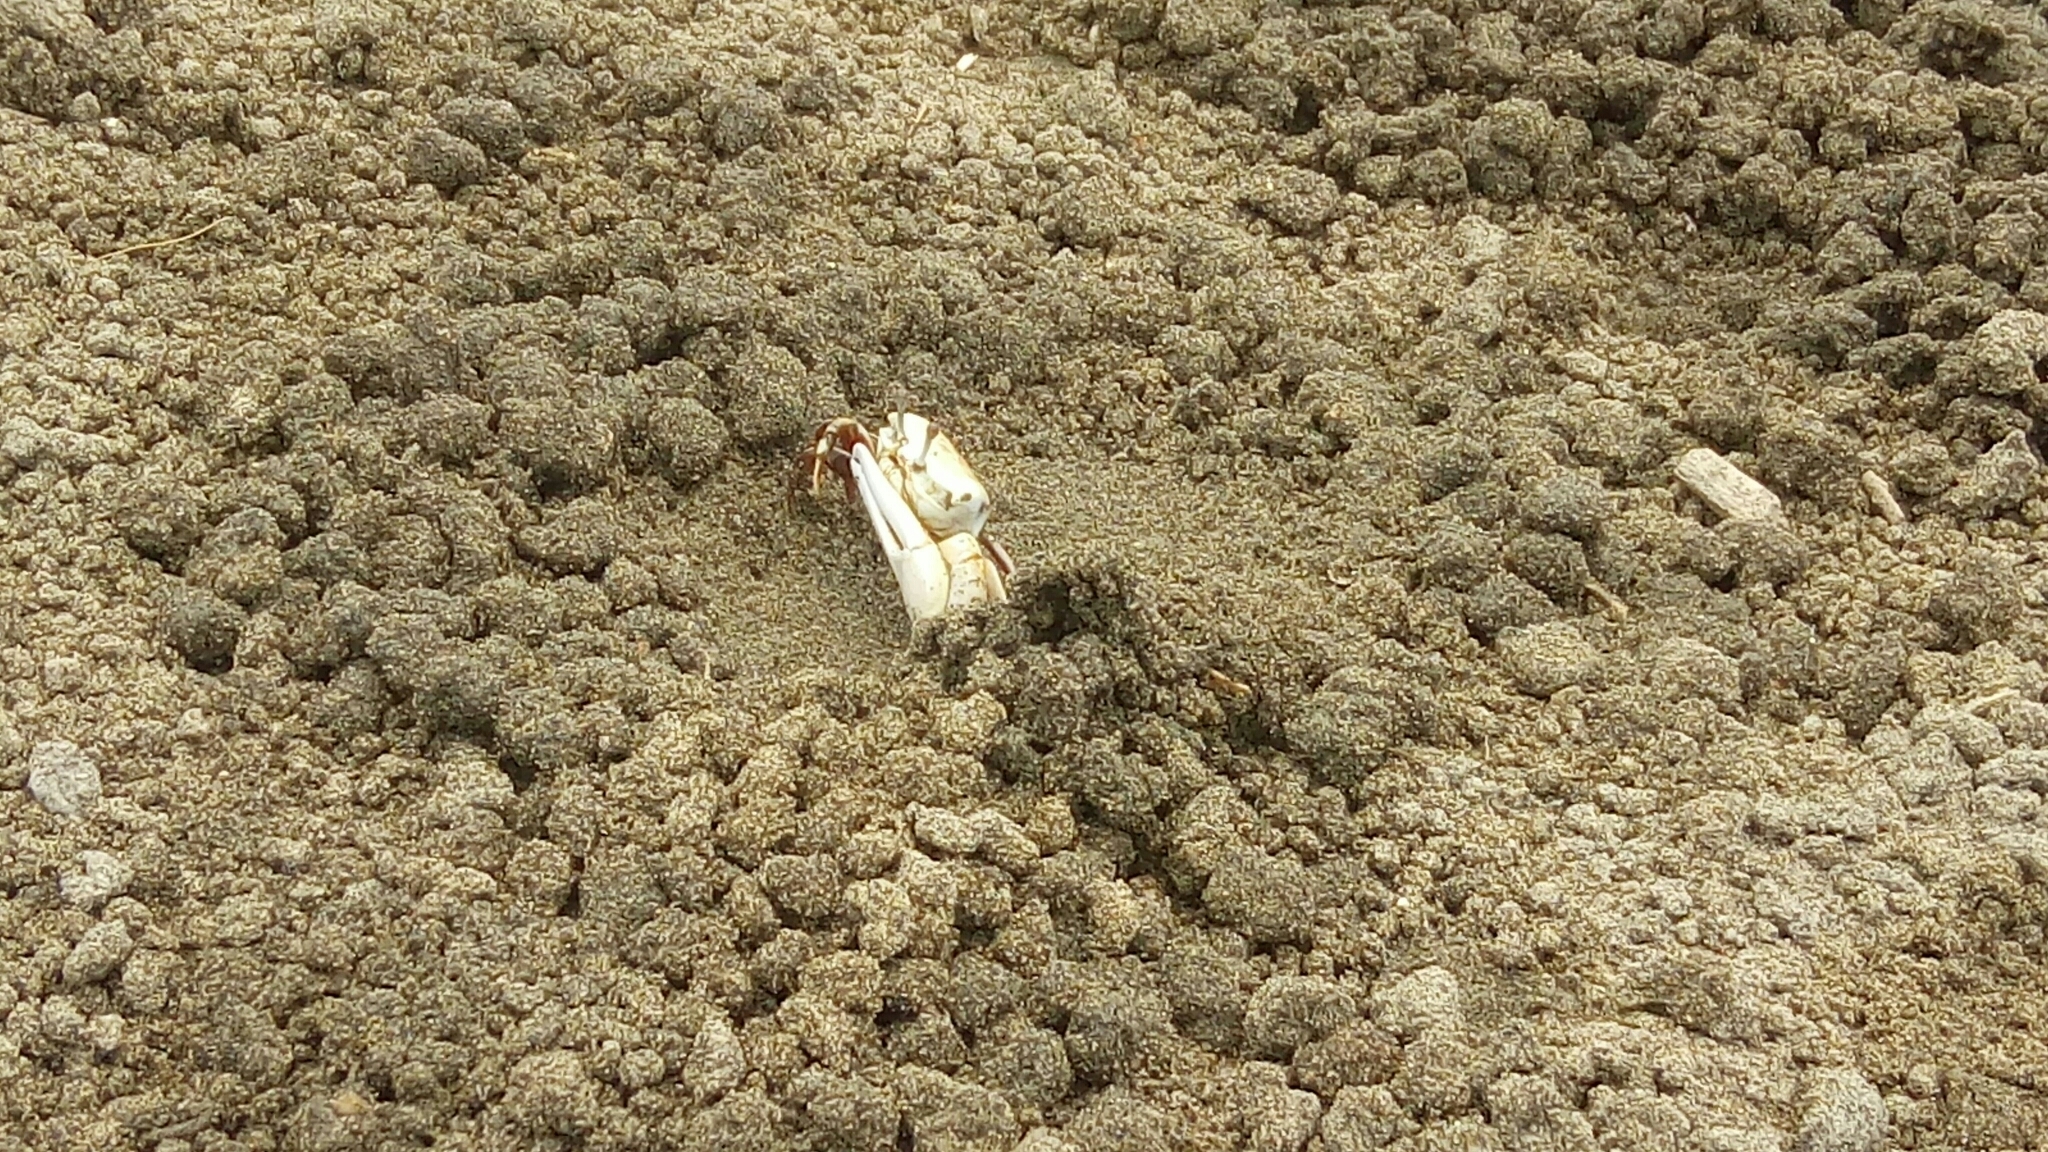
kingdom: Animalia
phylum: Arthropoda
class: Malacostraca
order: Decapoda
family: Ocypodidae
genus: Austruca
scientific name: Austruca lactea
